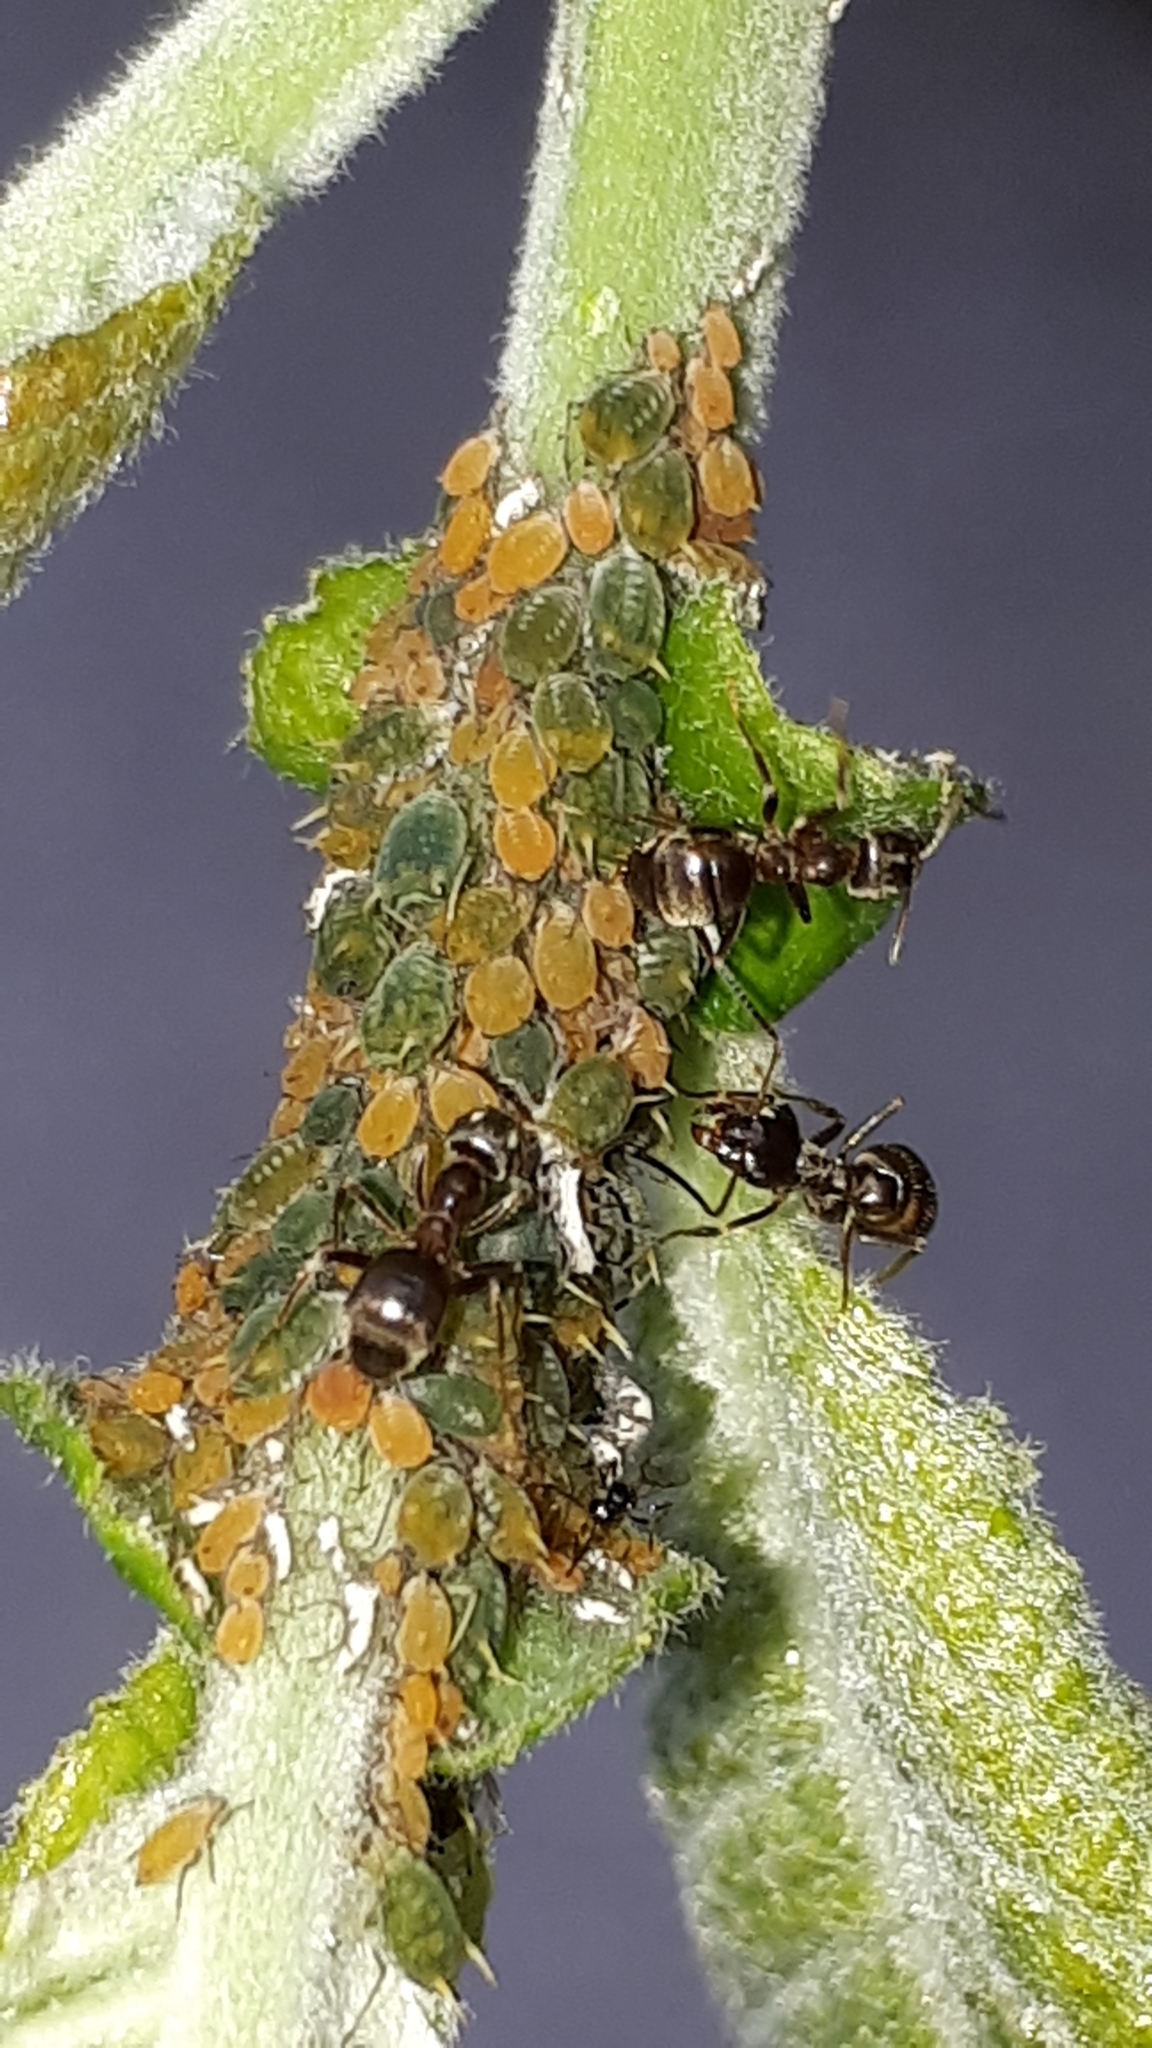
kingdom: Animalia
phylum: Arthropoda
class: Insecta
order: Hemiptera
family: Aphididae
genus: Aphis
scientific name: Aphis farinosa
